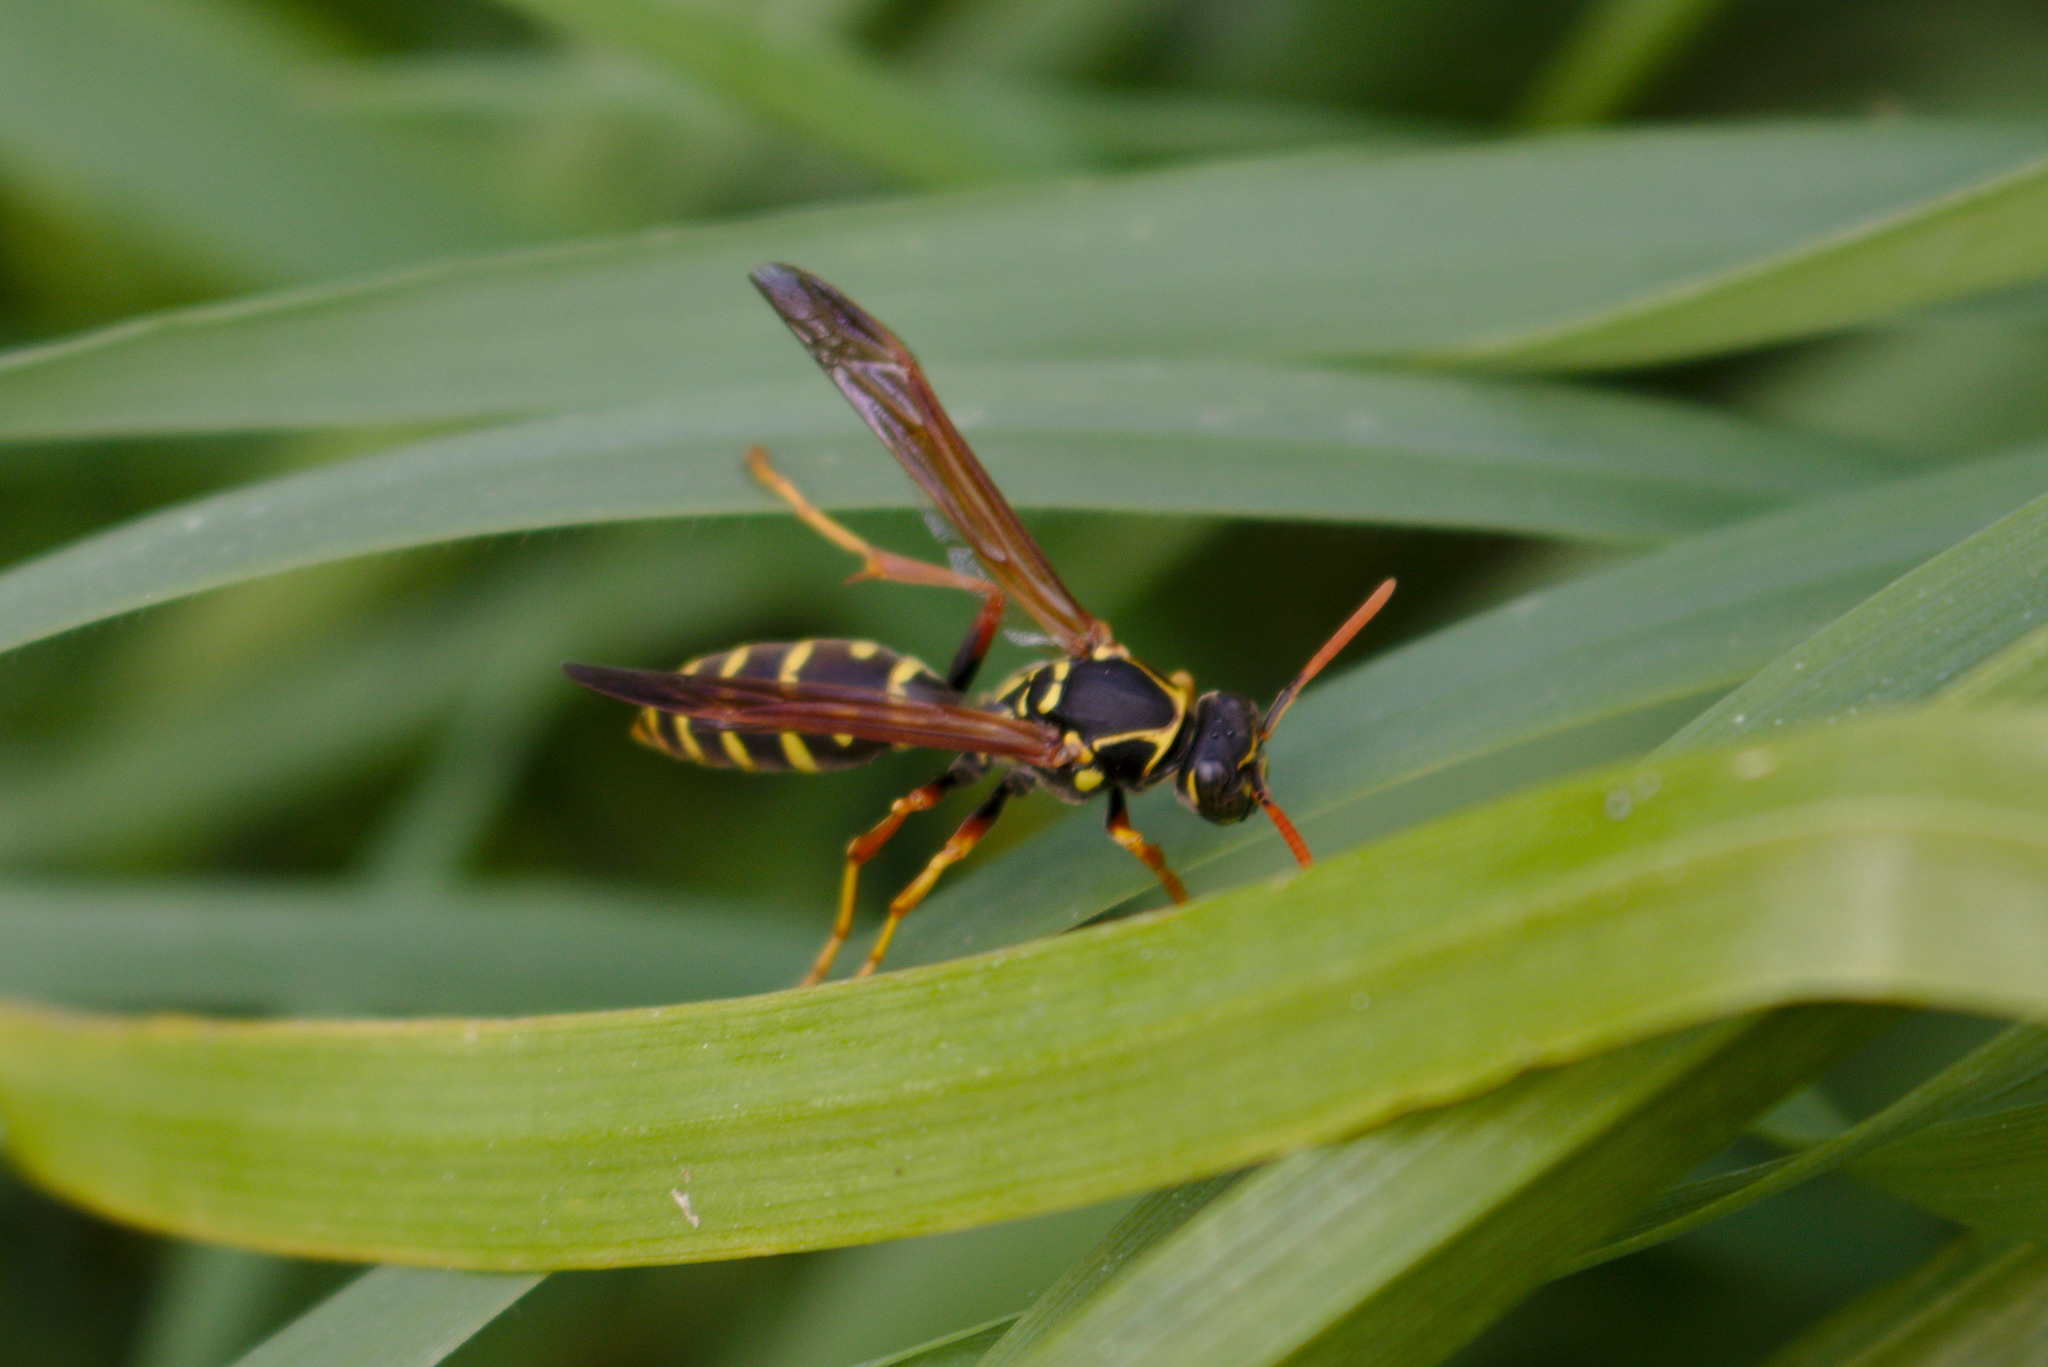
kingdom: Animalia
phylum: Arthropoda
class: Insecta
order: Hymenoptera
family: Eumenidae
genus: Polistes
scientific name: Polistes chinensis
